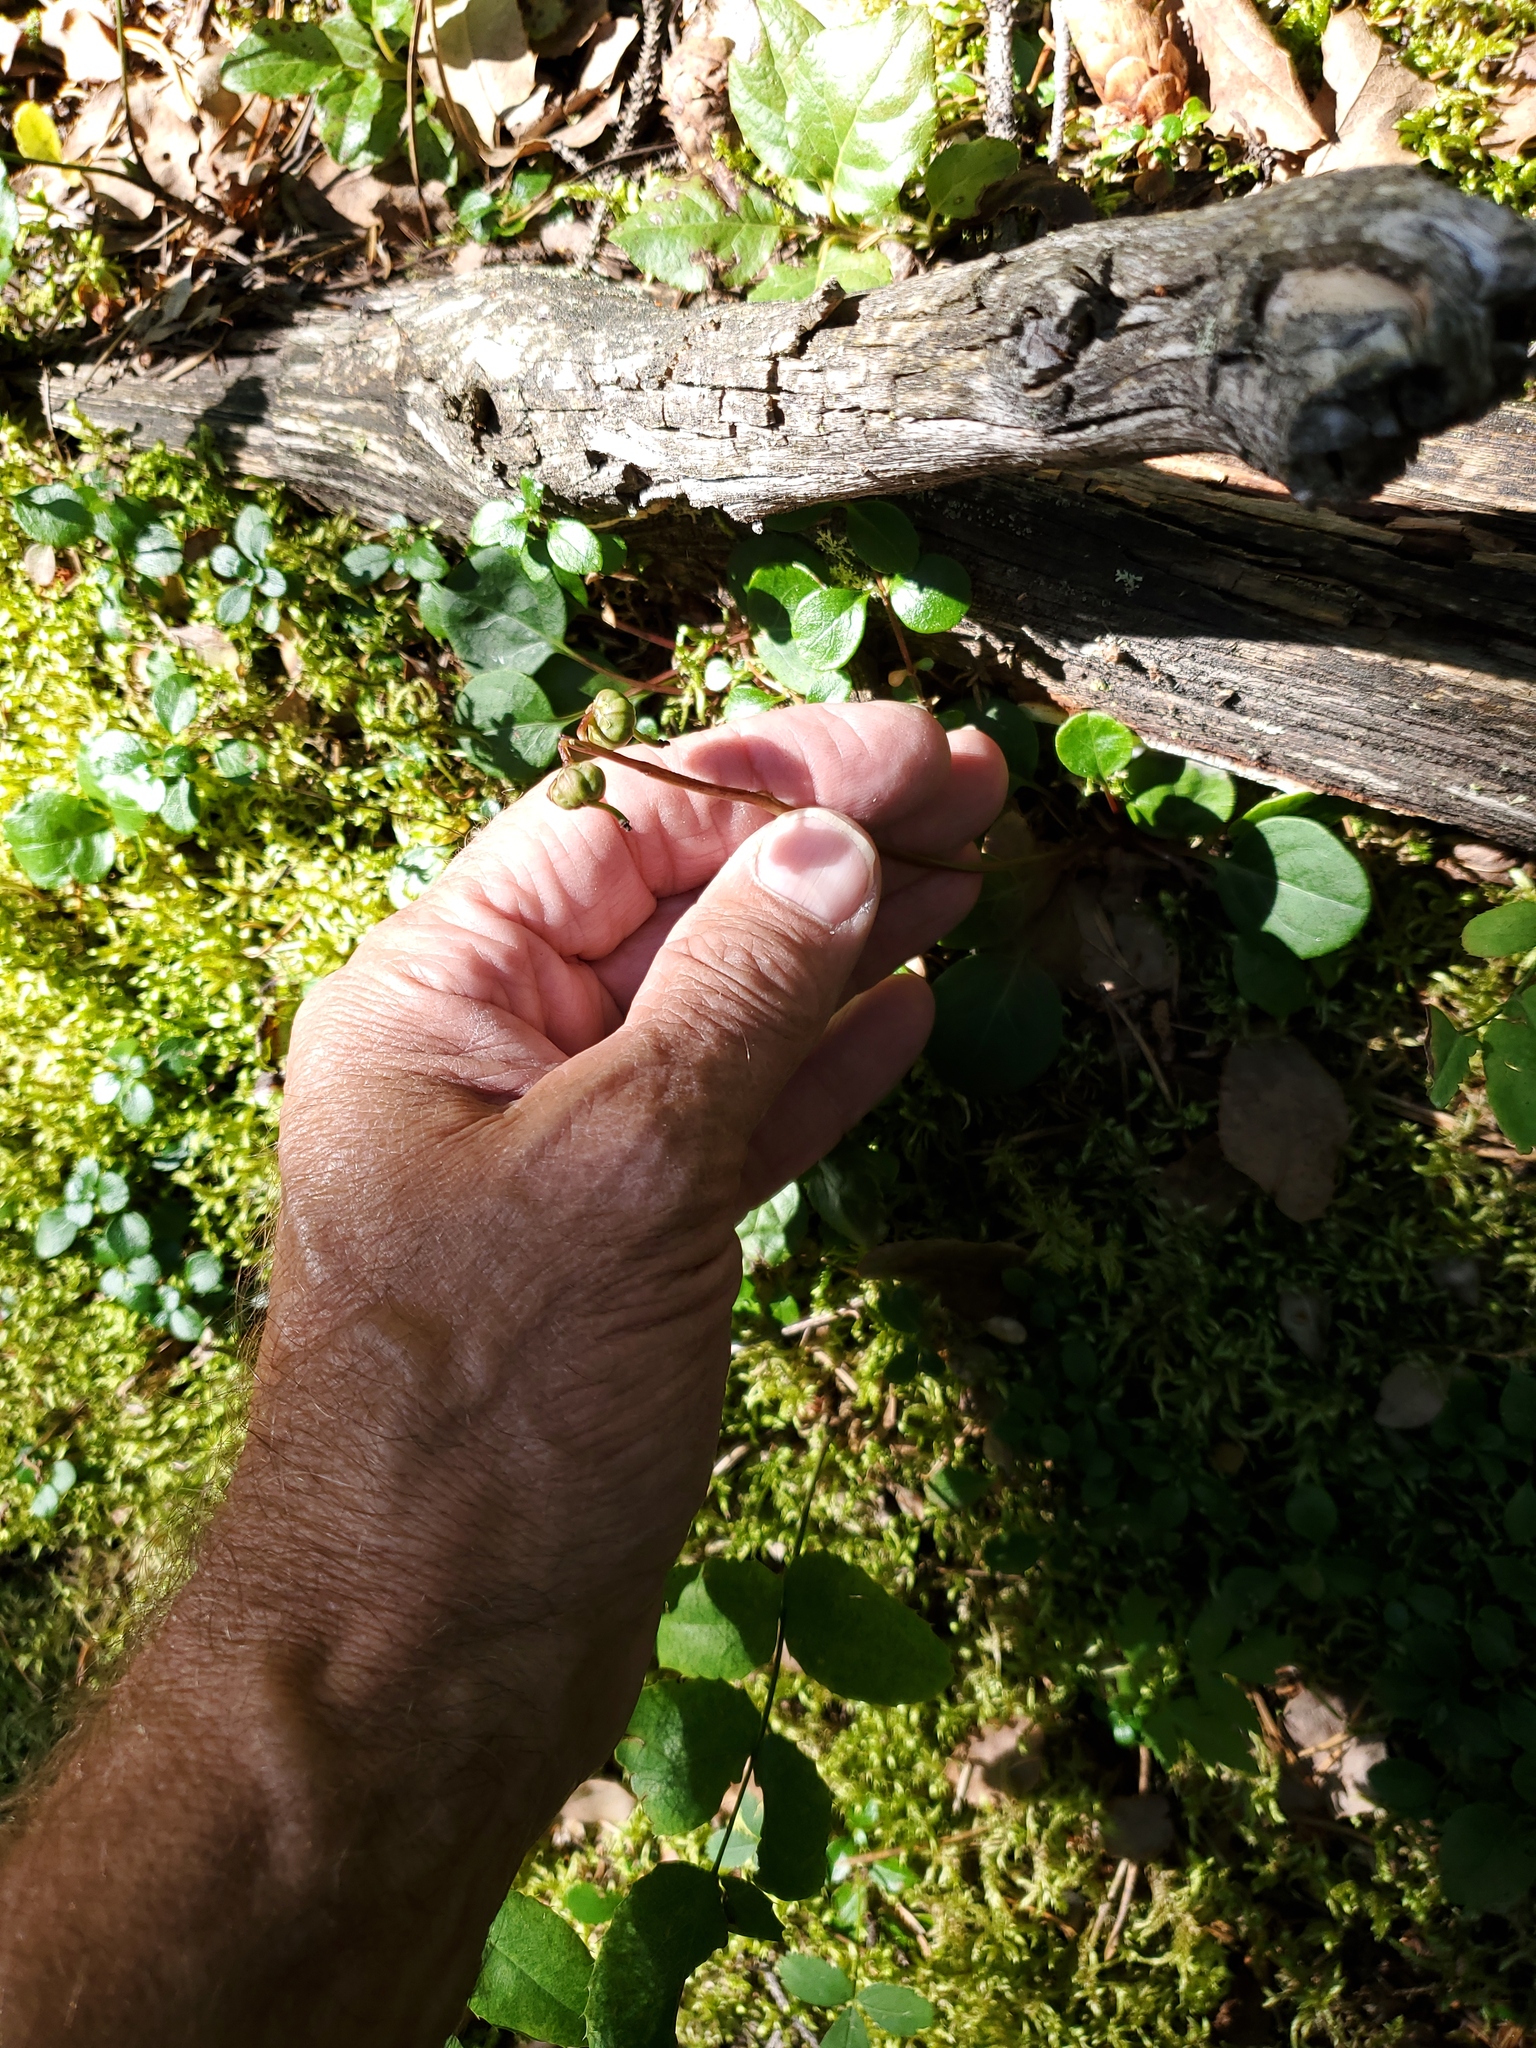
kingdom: Plantae
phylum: Tracheophyta
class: Magnoliopsida
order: Ericales
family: Ericaceae
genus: Pyrola
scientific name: Pyrola chlorantha
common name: Green wintergreen
